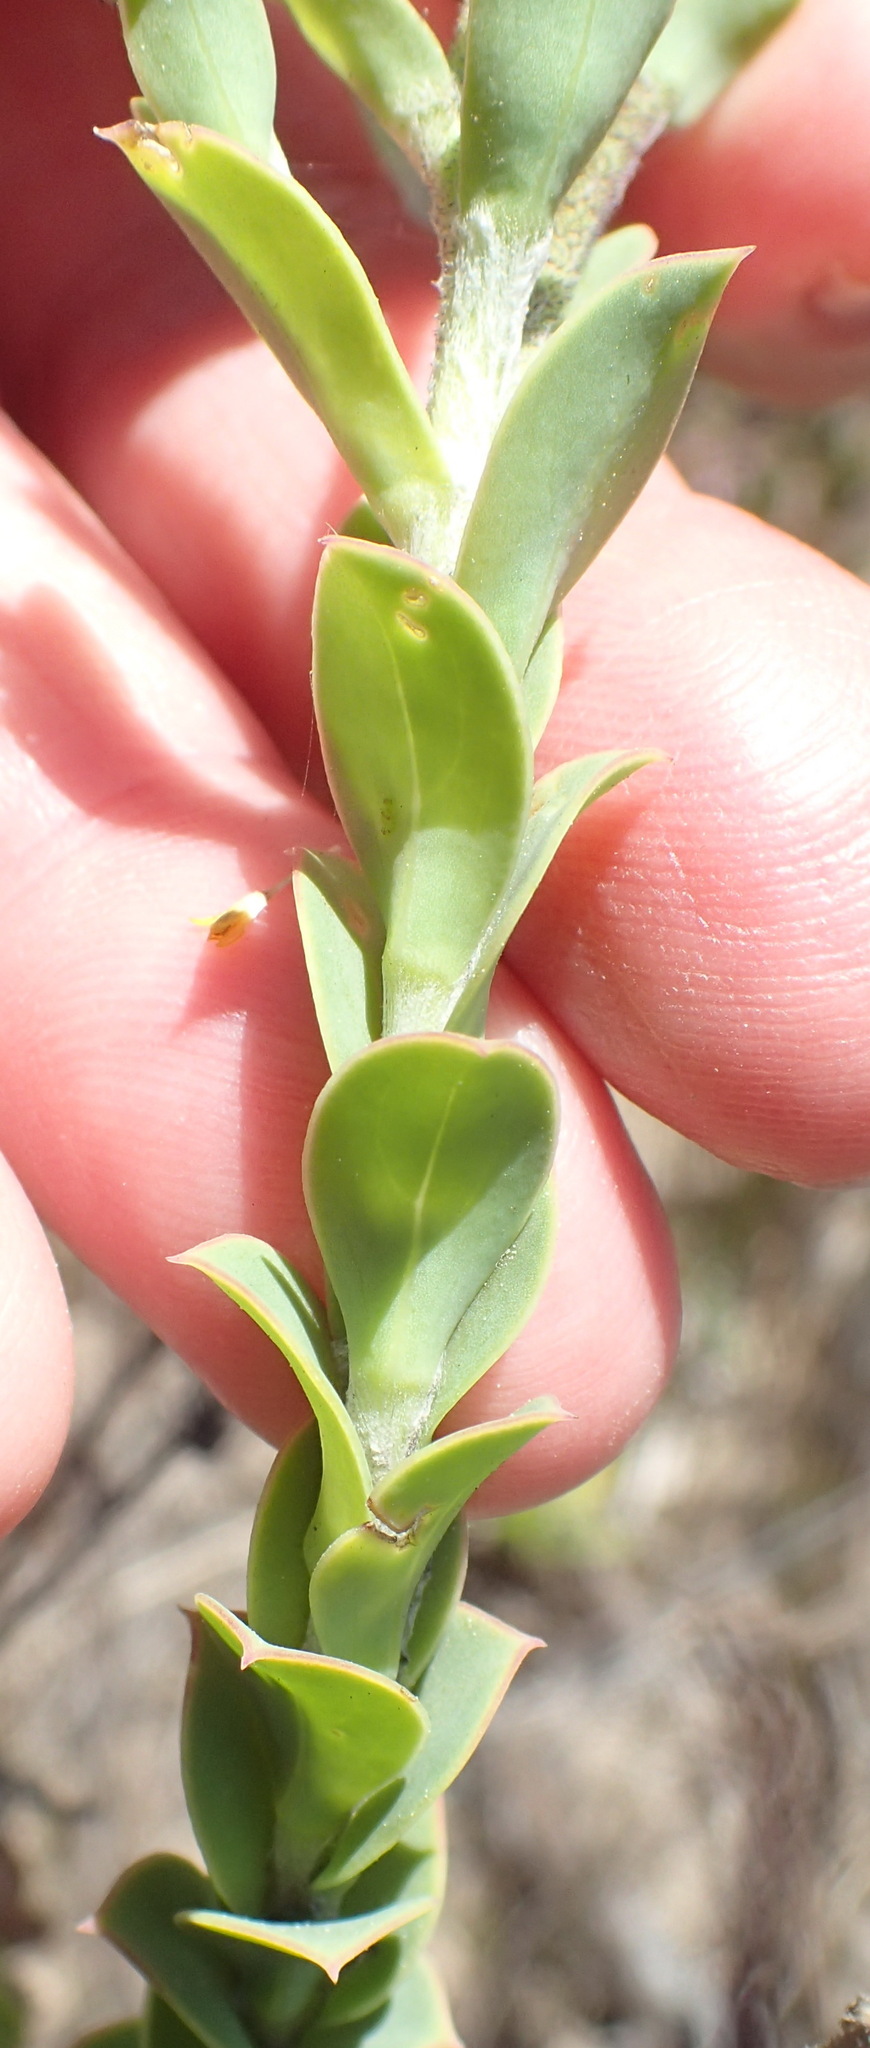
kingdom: Plantae
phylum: Tracheophyta
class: Magnoliopsida
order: Asterales
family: Asteraceae
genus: Osteospermum
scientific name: Osteospermum polygaloides
